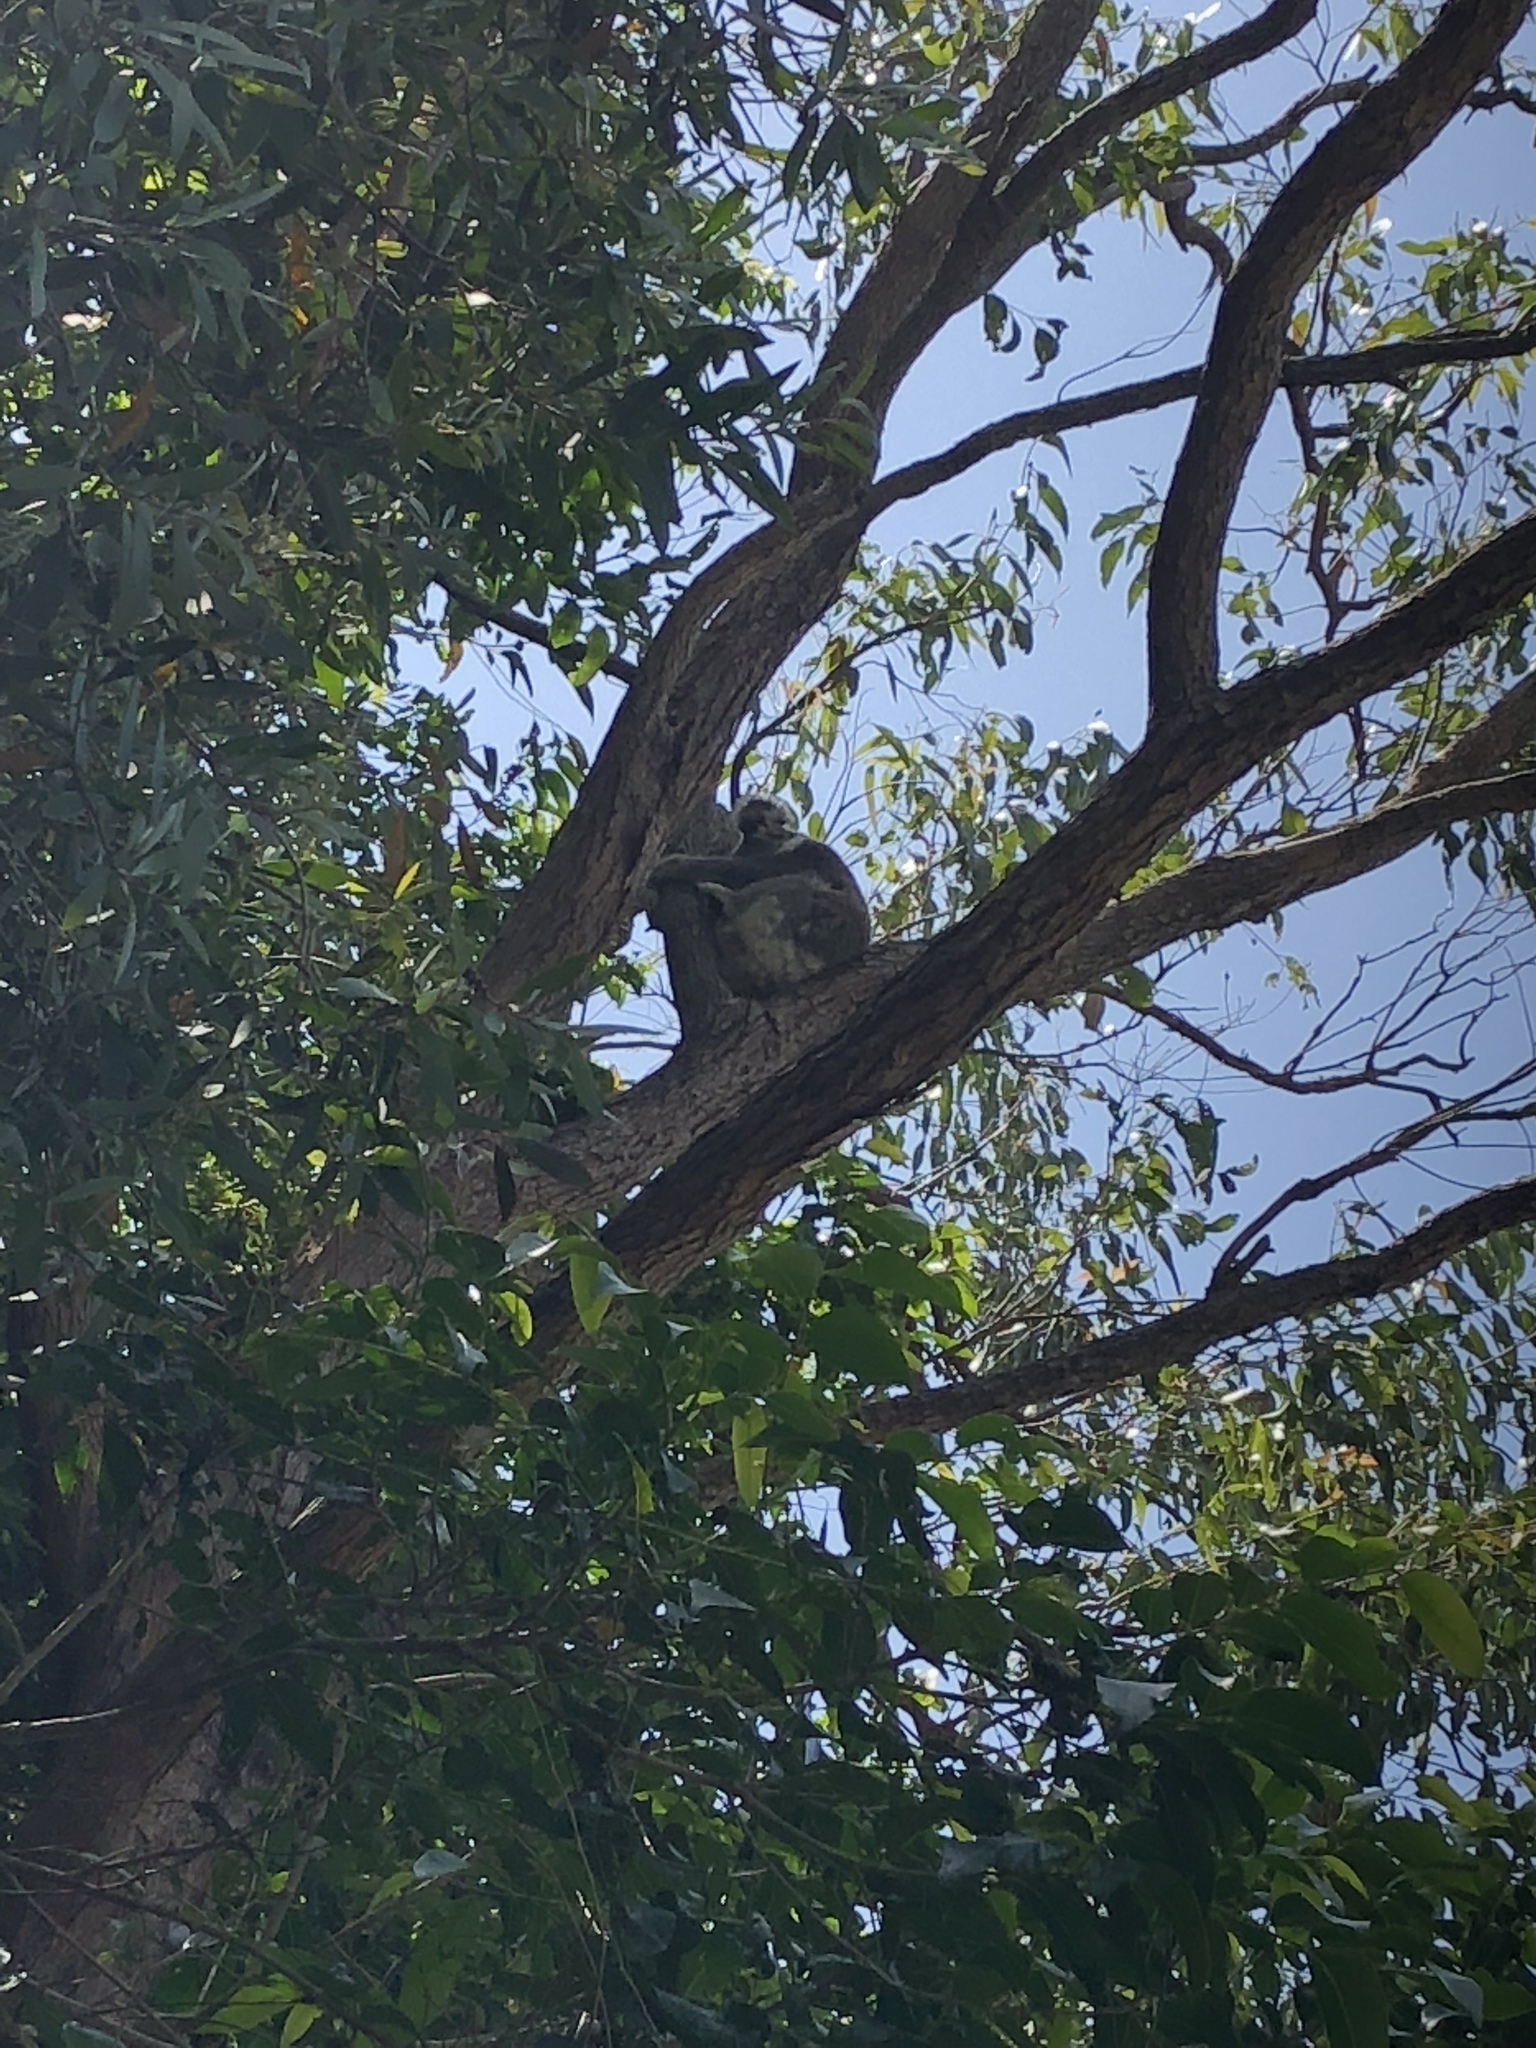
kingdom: Animalia
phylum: Chordata
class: Mammalia
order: Diprotodontia
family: Phascolarctidae
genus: Phascolarctos
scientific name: Phascolarctos cinereus
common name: Koala
